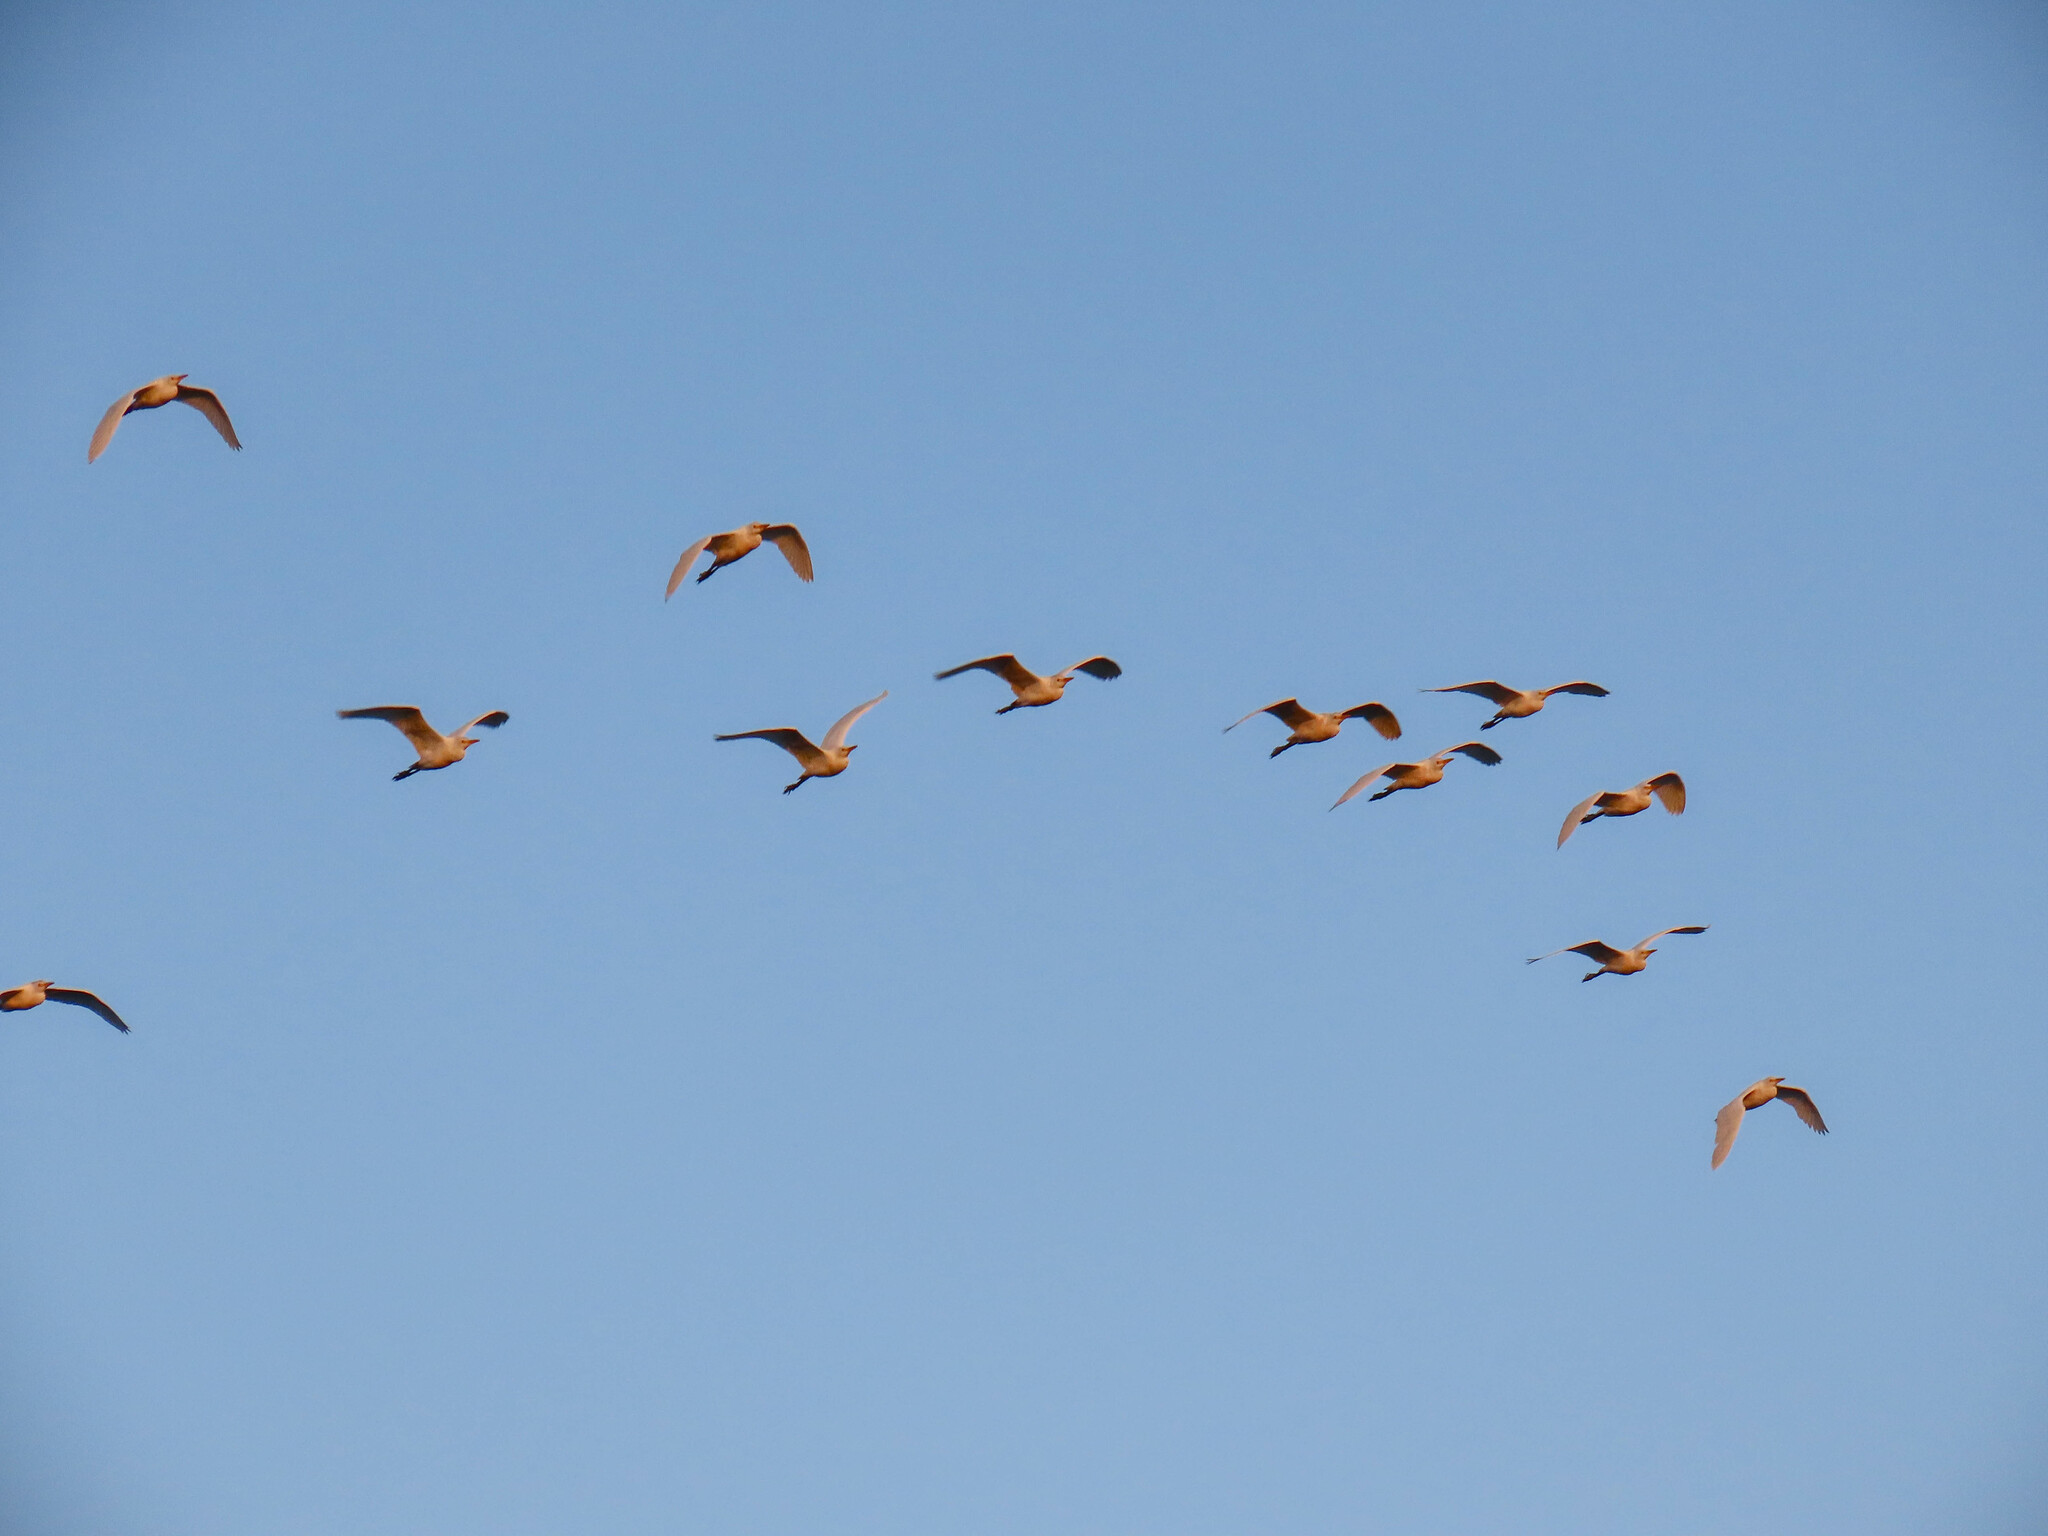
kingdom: Animalia
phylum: Chordata
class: Aves
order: Pelecaniformes
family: Ardeidae
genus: Bubulcus
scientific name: Bubulcus ibis
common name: Cattle egret
